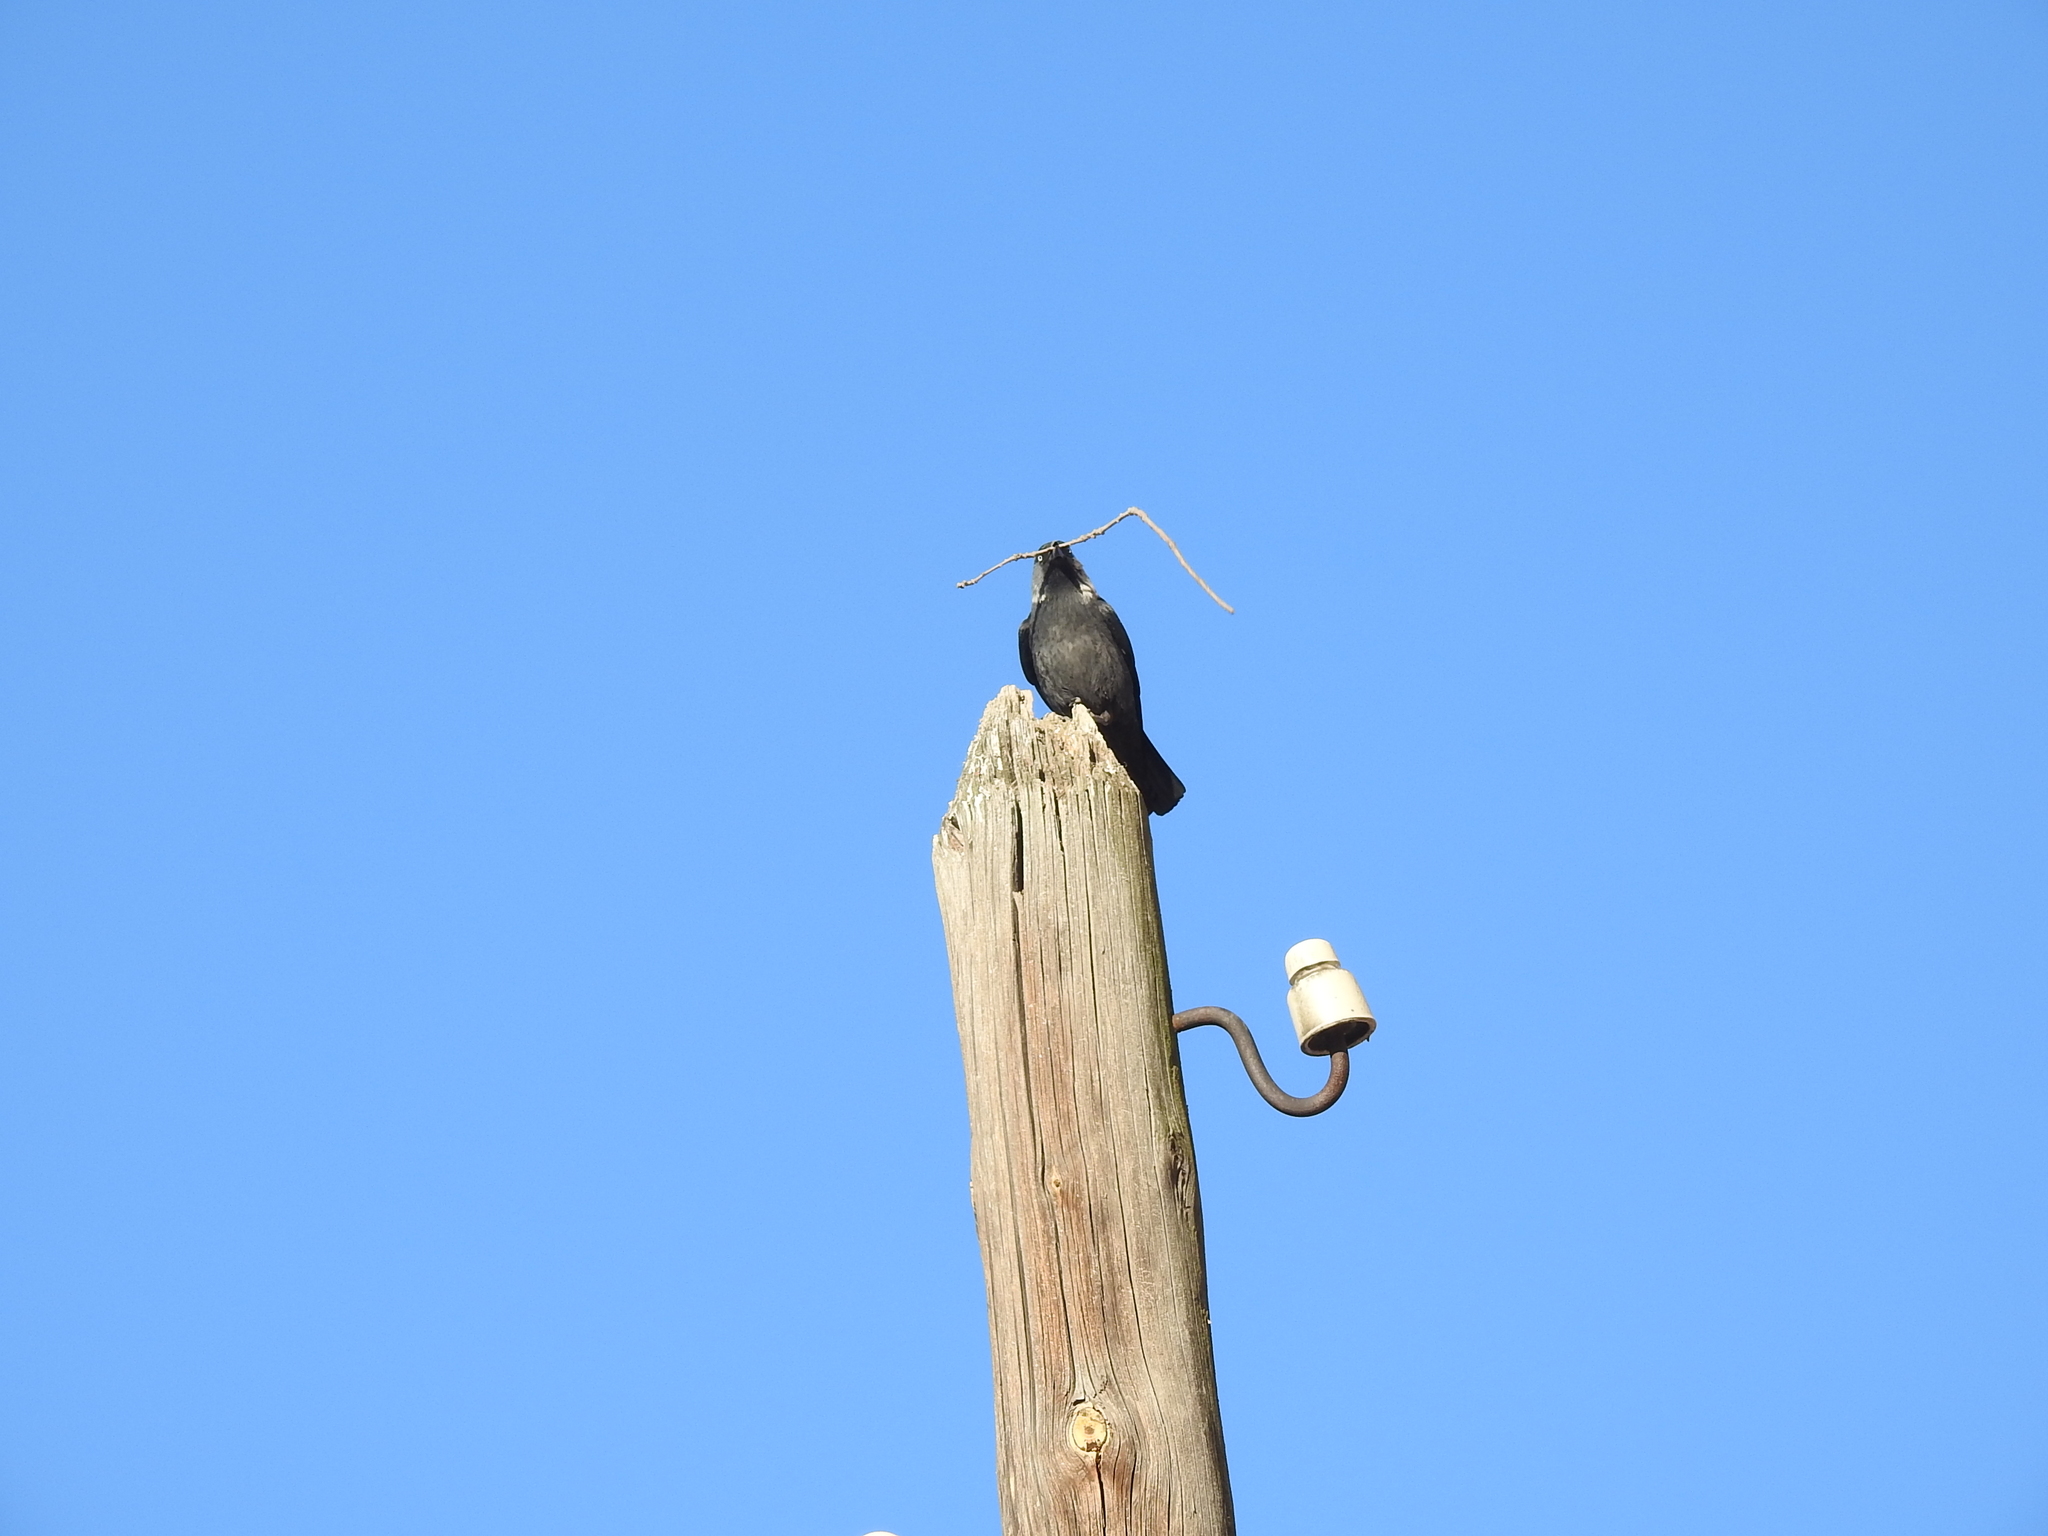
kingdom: Animalia
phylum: Chordata
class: Aves
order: Passeriformes
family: Corvidae
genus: Coloeus
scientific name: Coloeus monedula
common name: Western jackdaw
